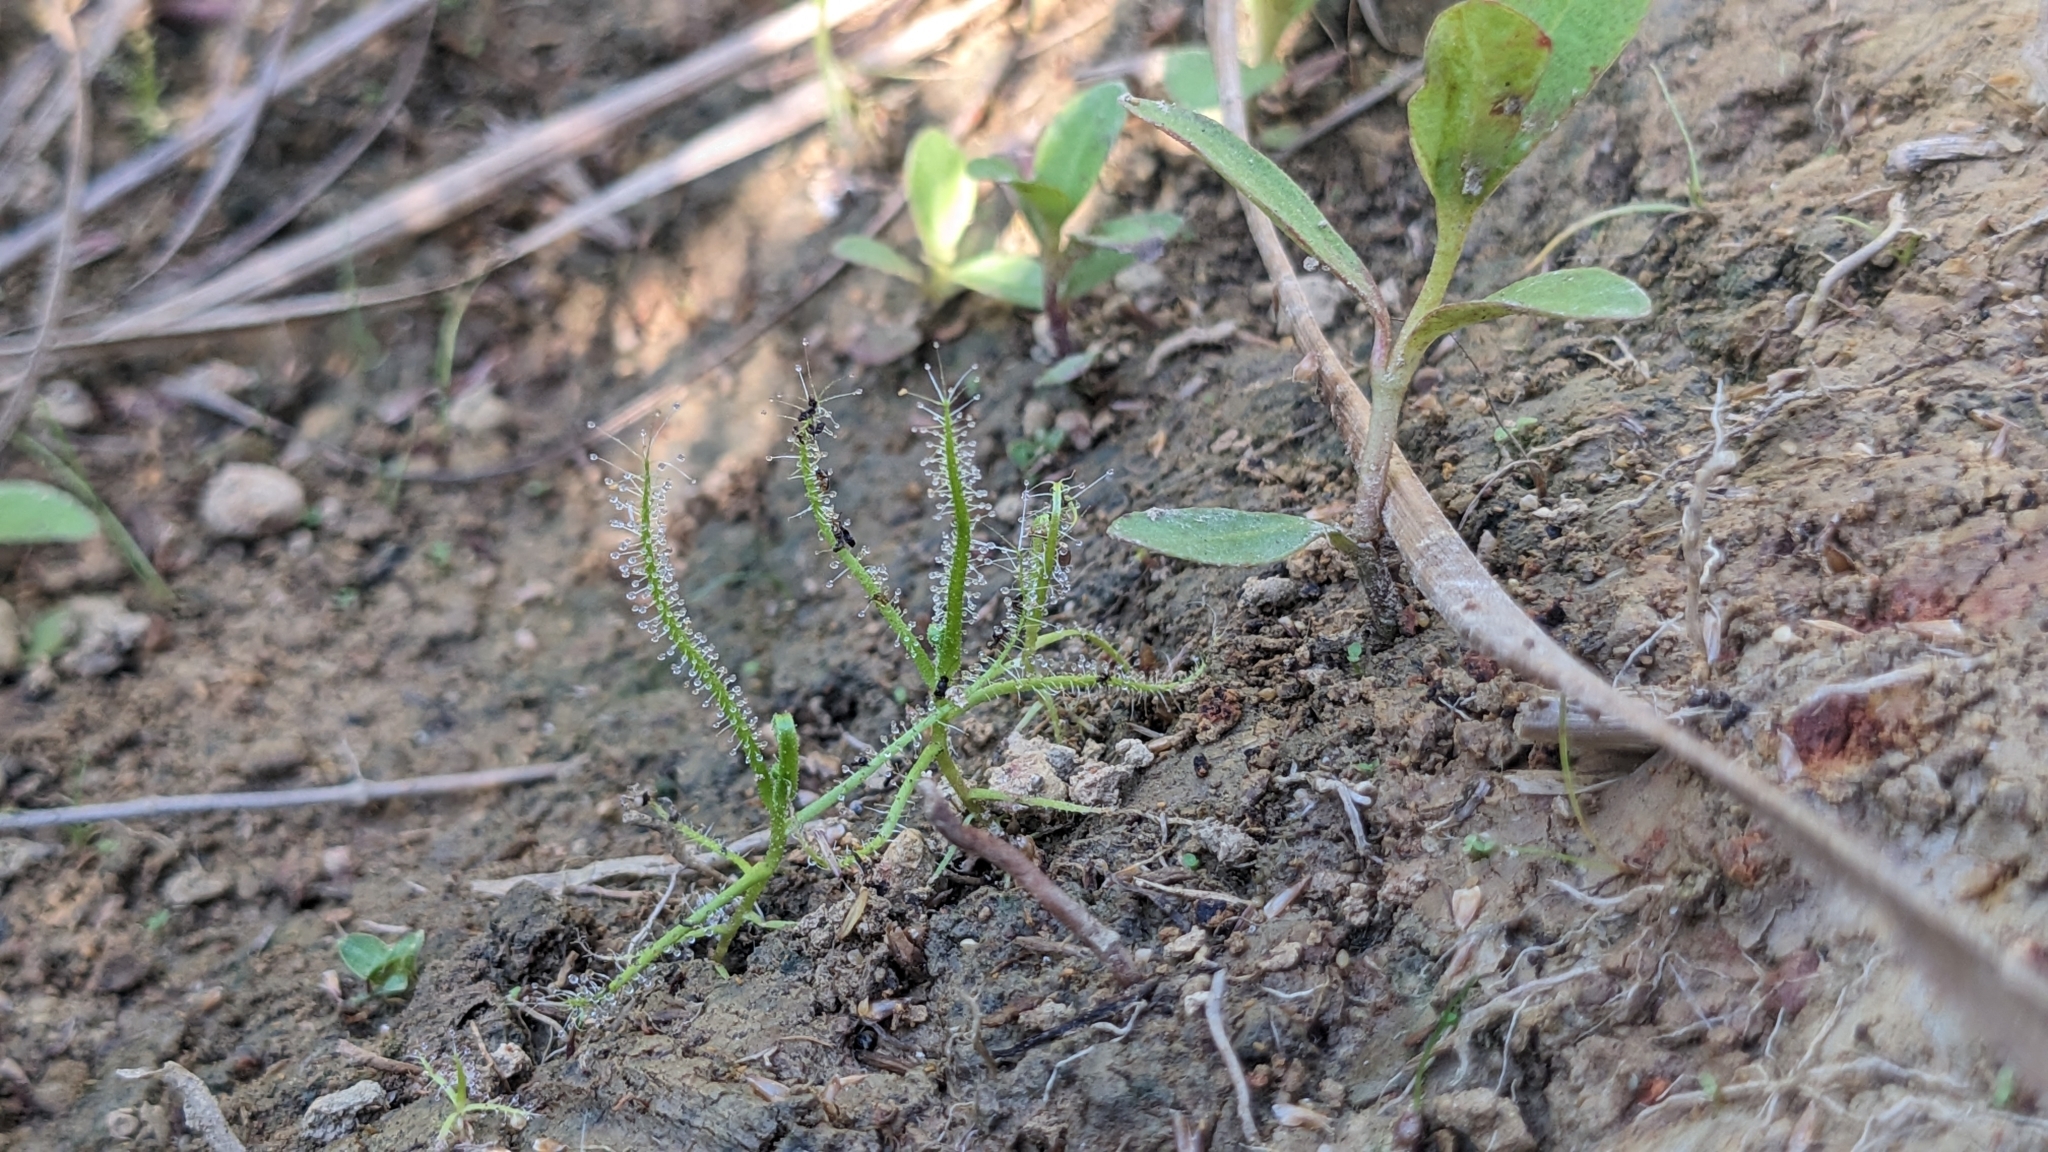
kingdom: Plantae
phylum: Tracheophyta
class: Magnoliopsida
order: Caryophyllales
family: Droseraceae
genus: Drosera
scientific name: Drosera finlaysoniana
